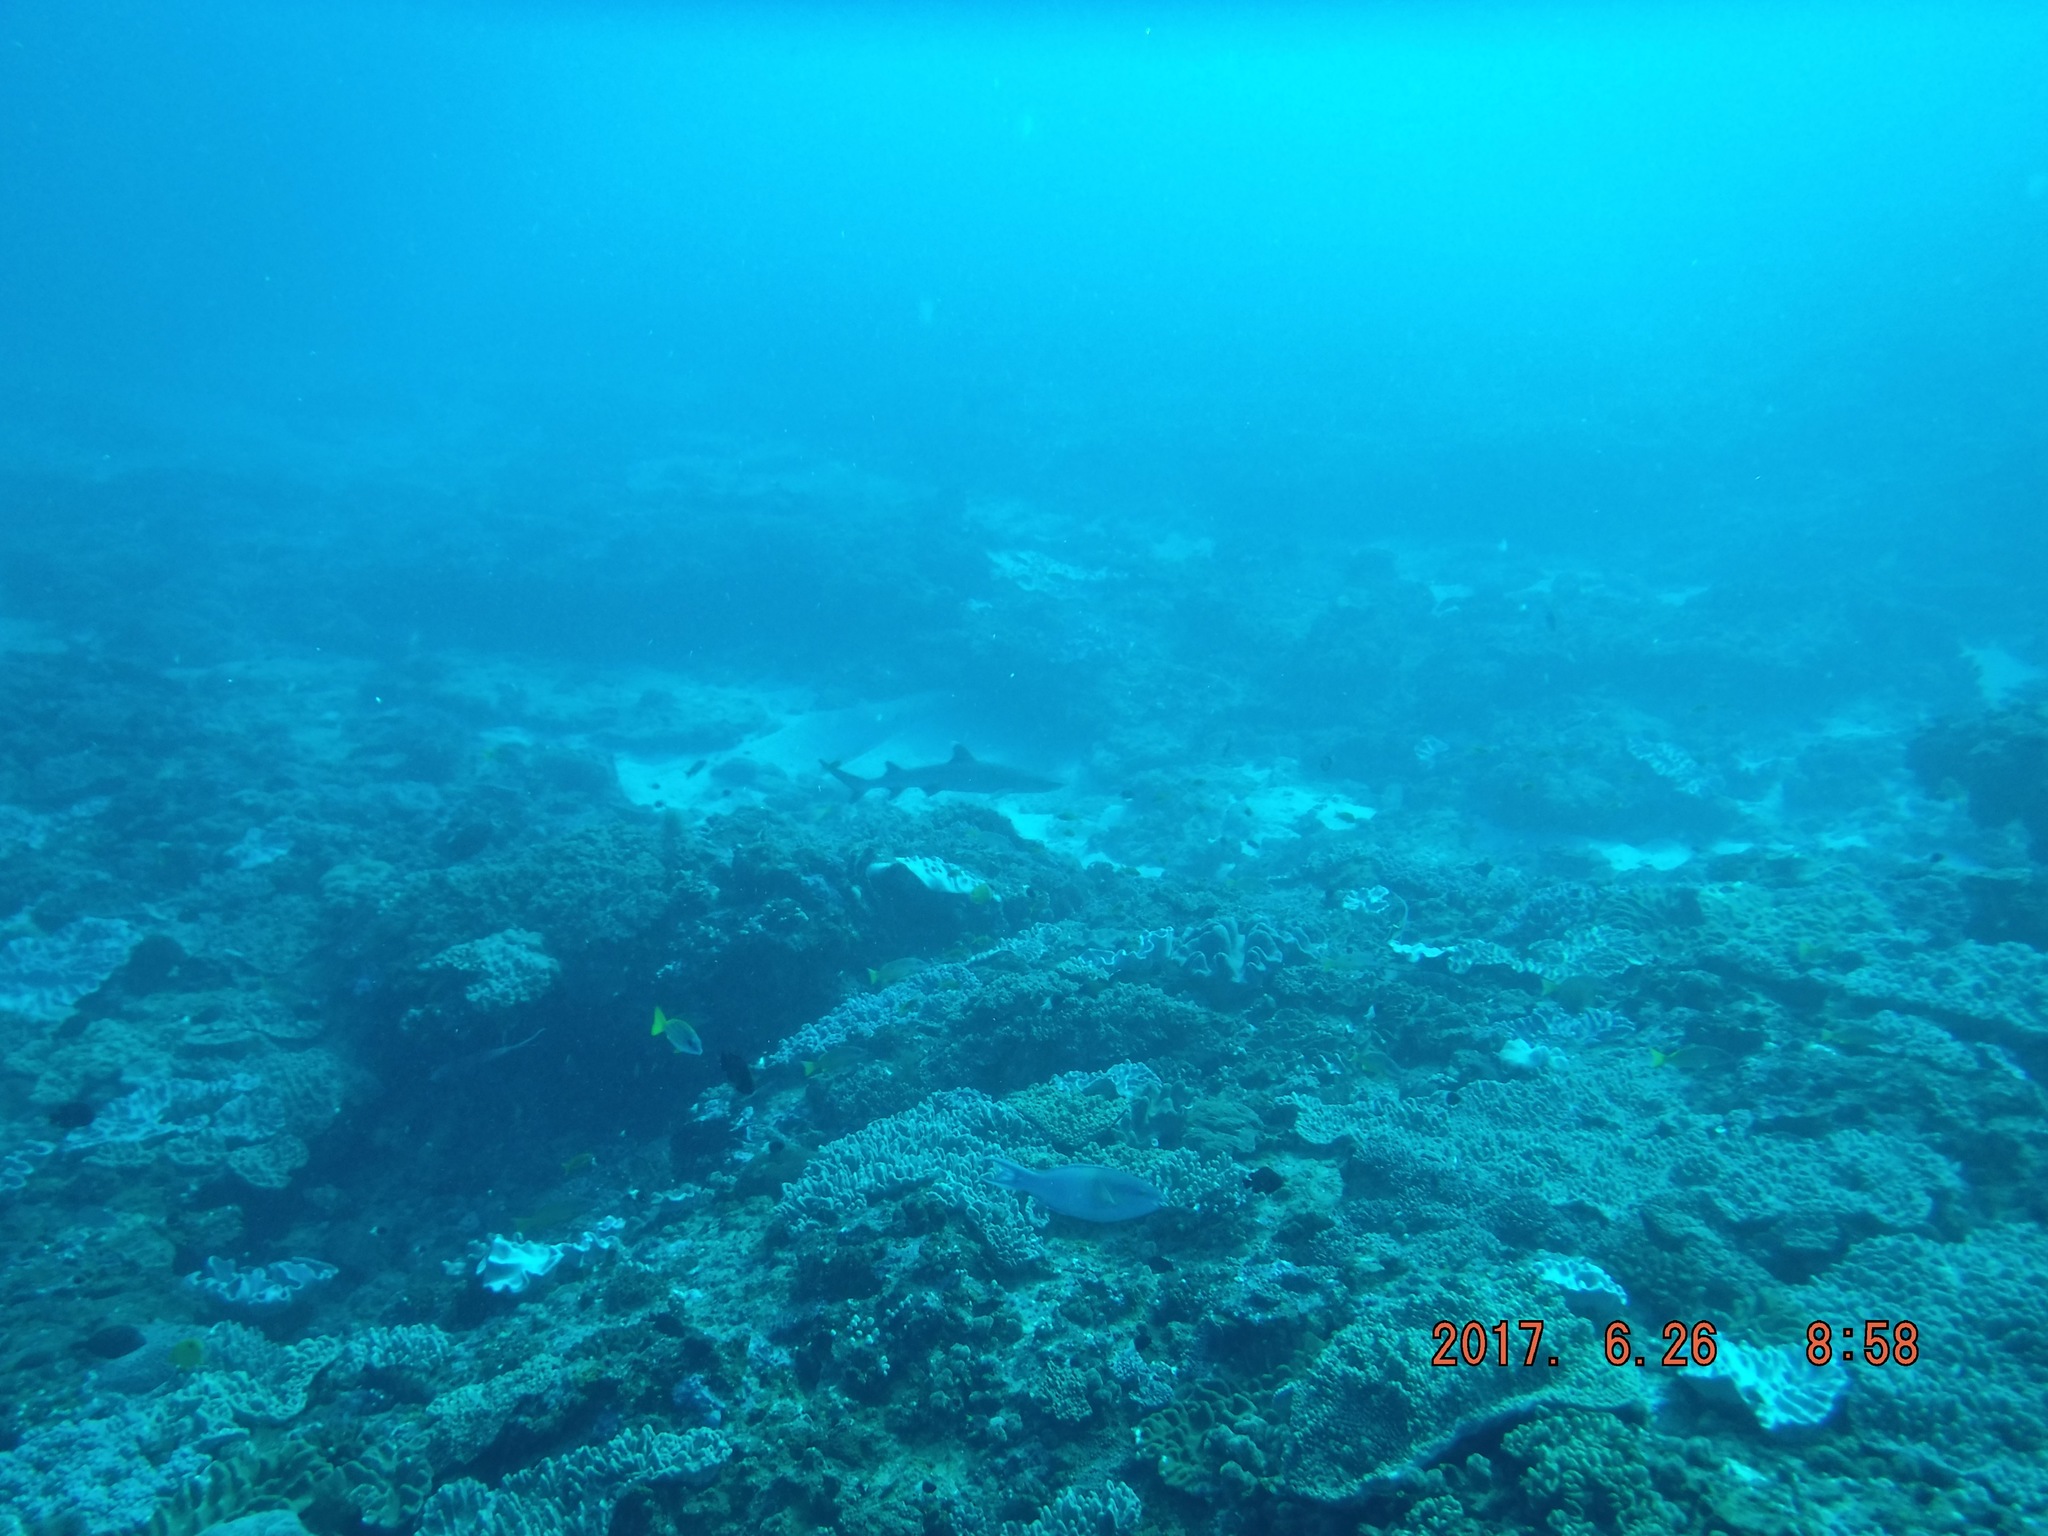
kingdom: Animalia
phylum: Chordata
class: Elasmobranchii
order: Carcharhiniformes
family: Carcharhinidae
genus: Triaenodon
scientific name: Triaenodon obesus
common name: Whitetip reef shark
